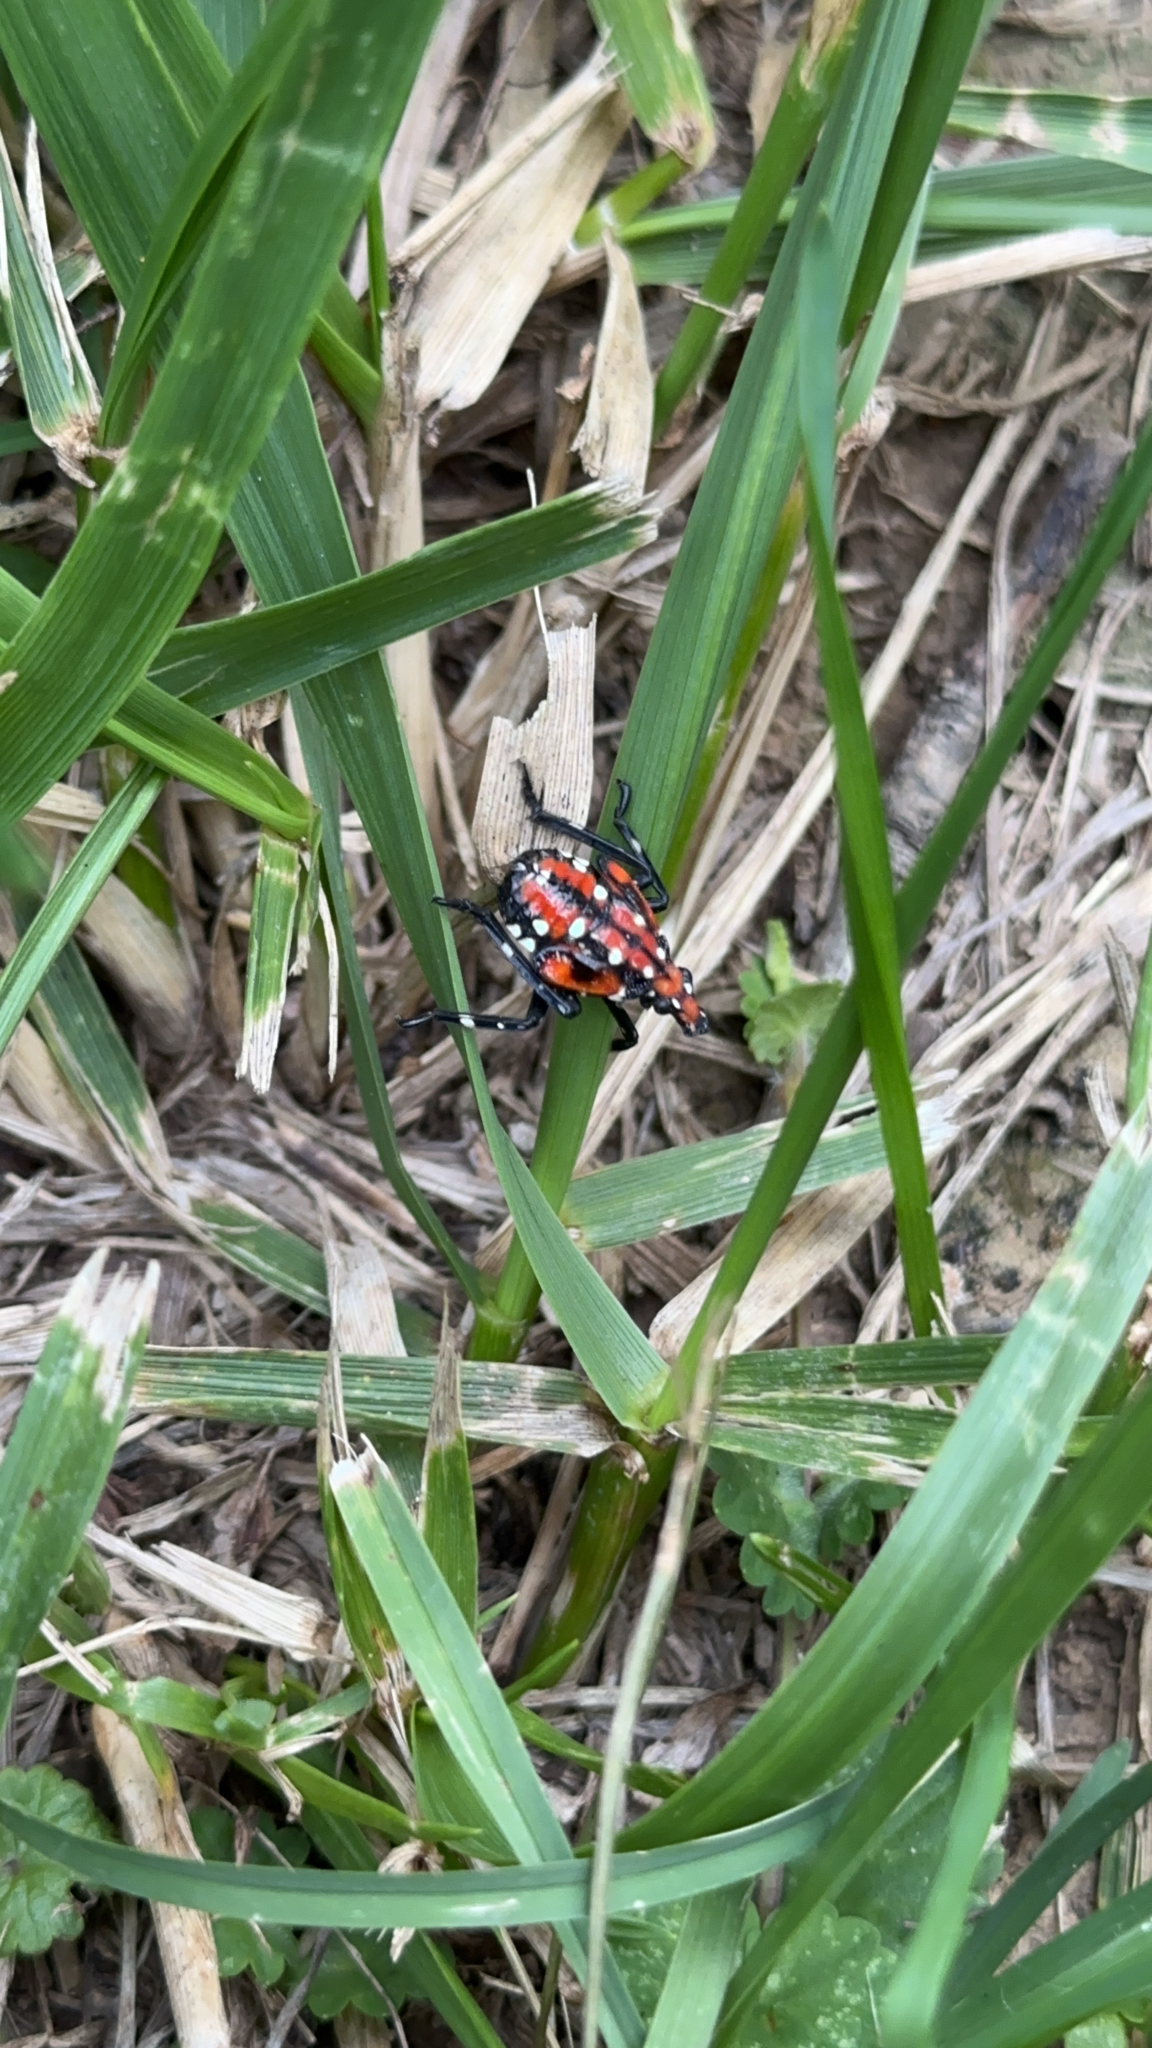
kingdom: Animalia
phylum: Arthropoda
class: Insecta
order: Hemiptera
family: Fulgoridae
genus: Lycorma
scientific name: Lycorma delicatula
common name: Spotted lanternfly
